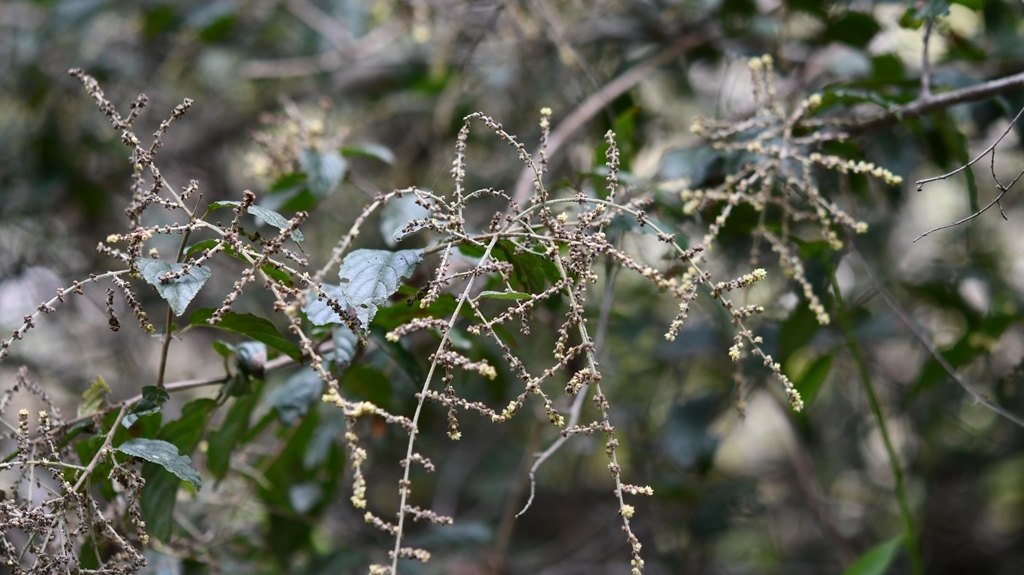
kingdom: Plantae
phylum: Tracheophyta
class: Magnoliopsida
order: Rosales
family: Rhamnaceae
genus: Sageretia
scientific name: Sageretia elegans
